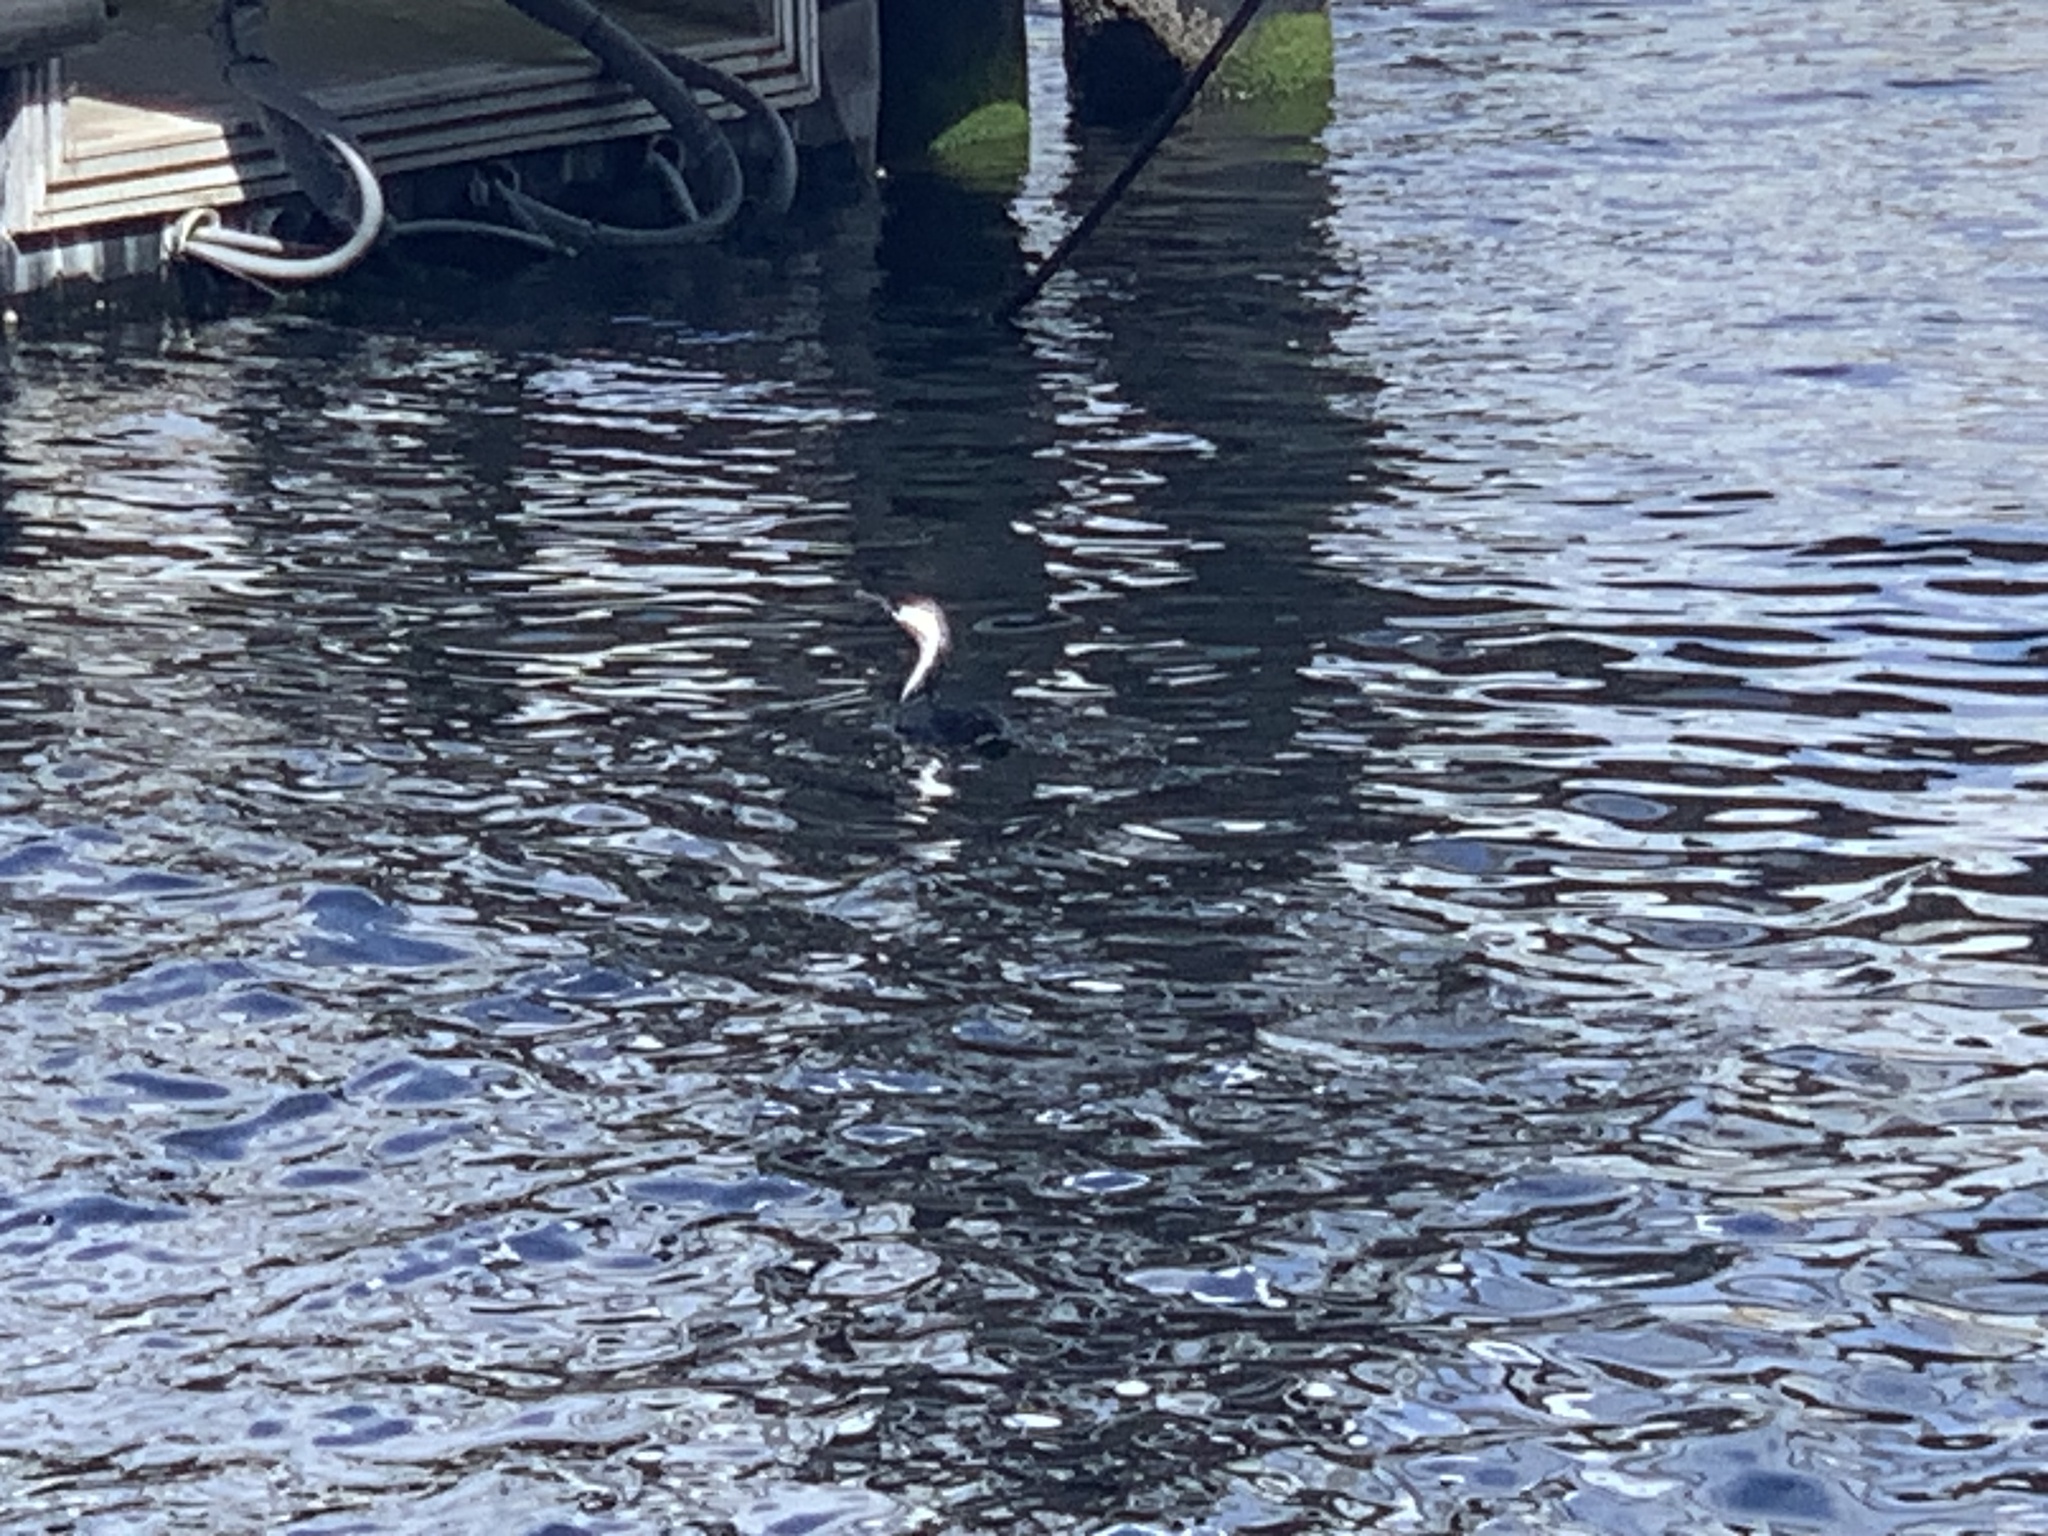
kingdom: Animalia
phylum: Chordata
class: Aves
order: Suliformes
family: Phalacrocoracidae
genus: Phalacrocorax
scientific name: Phalacrocorax fuscescens
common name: Black-faced cormorant
